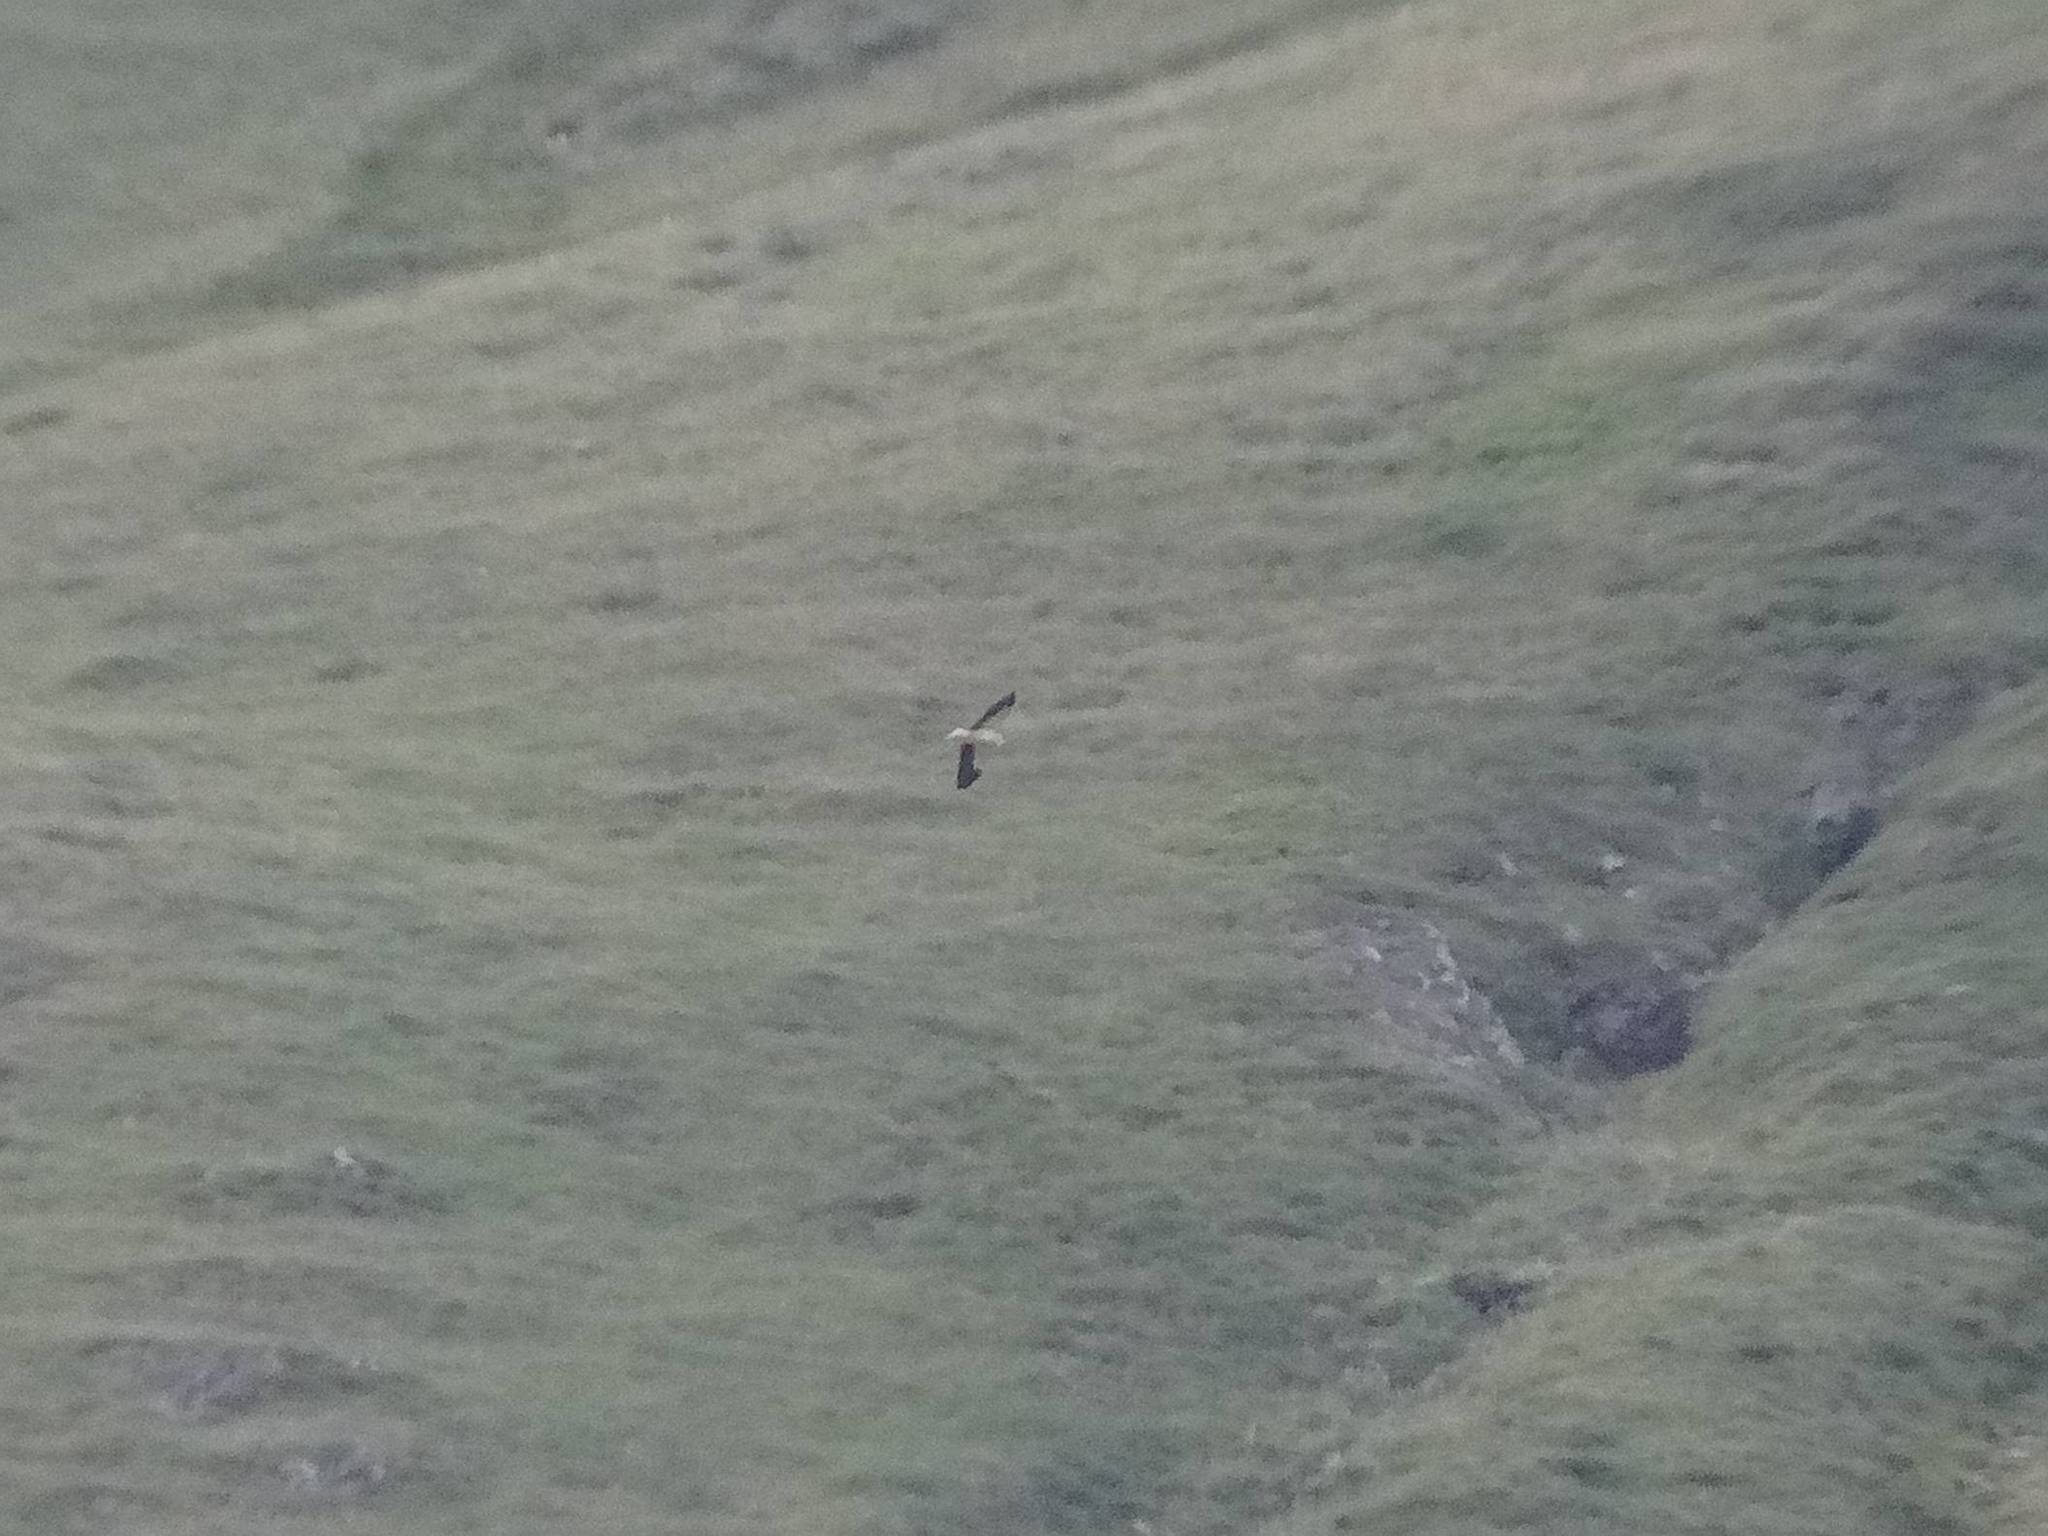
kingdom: Animalia
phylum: Chordata
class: Aves
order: Accipitriformes
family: Accipitridae
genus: Neophron
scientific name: Neophron percnopterus
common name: Egyptian vulture
